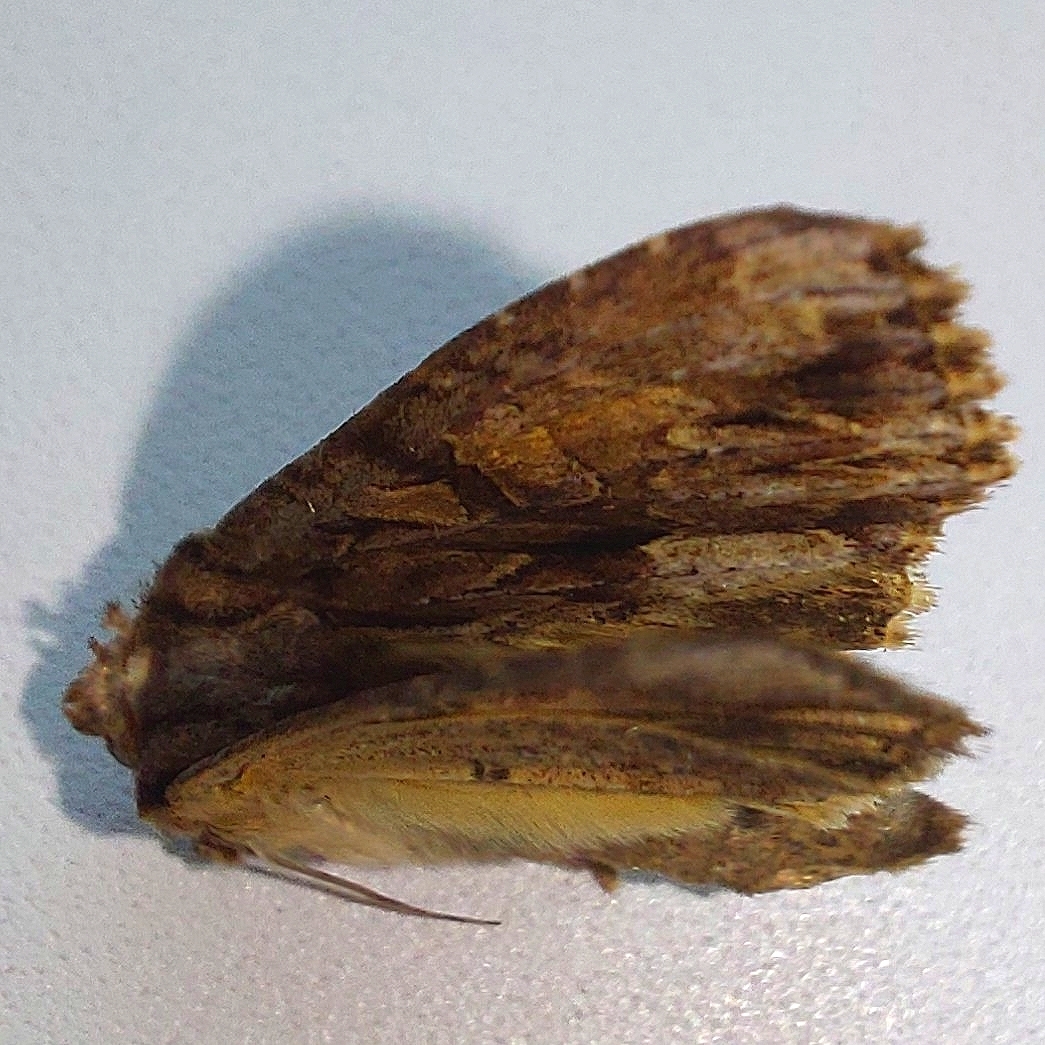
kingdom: Animalia
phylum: Arthropoda
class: Insecta
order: Lepidoptera
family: Noctuidae
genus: Apamea
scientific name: Apamea monoglypha
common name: Dark arches
